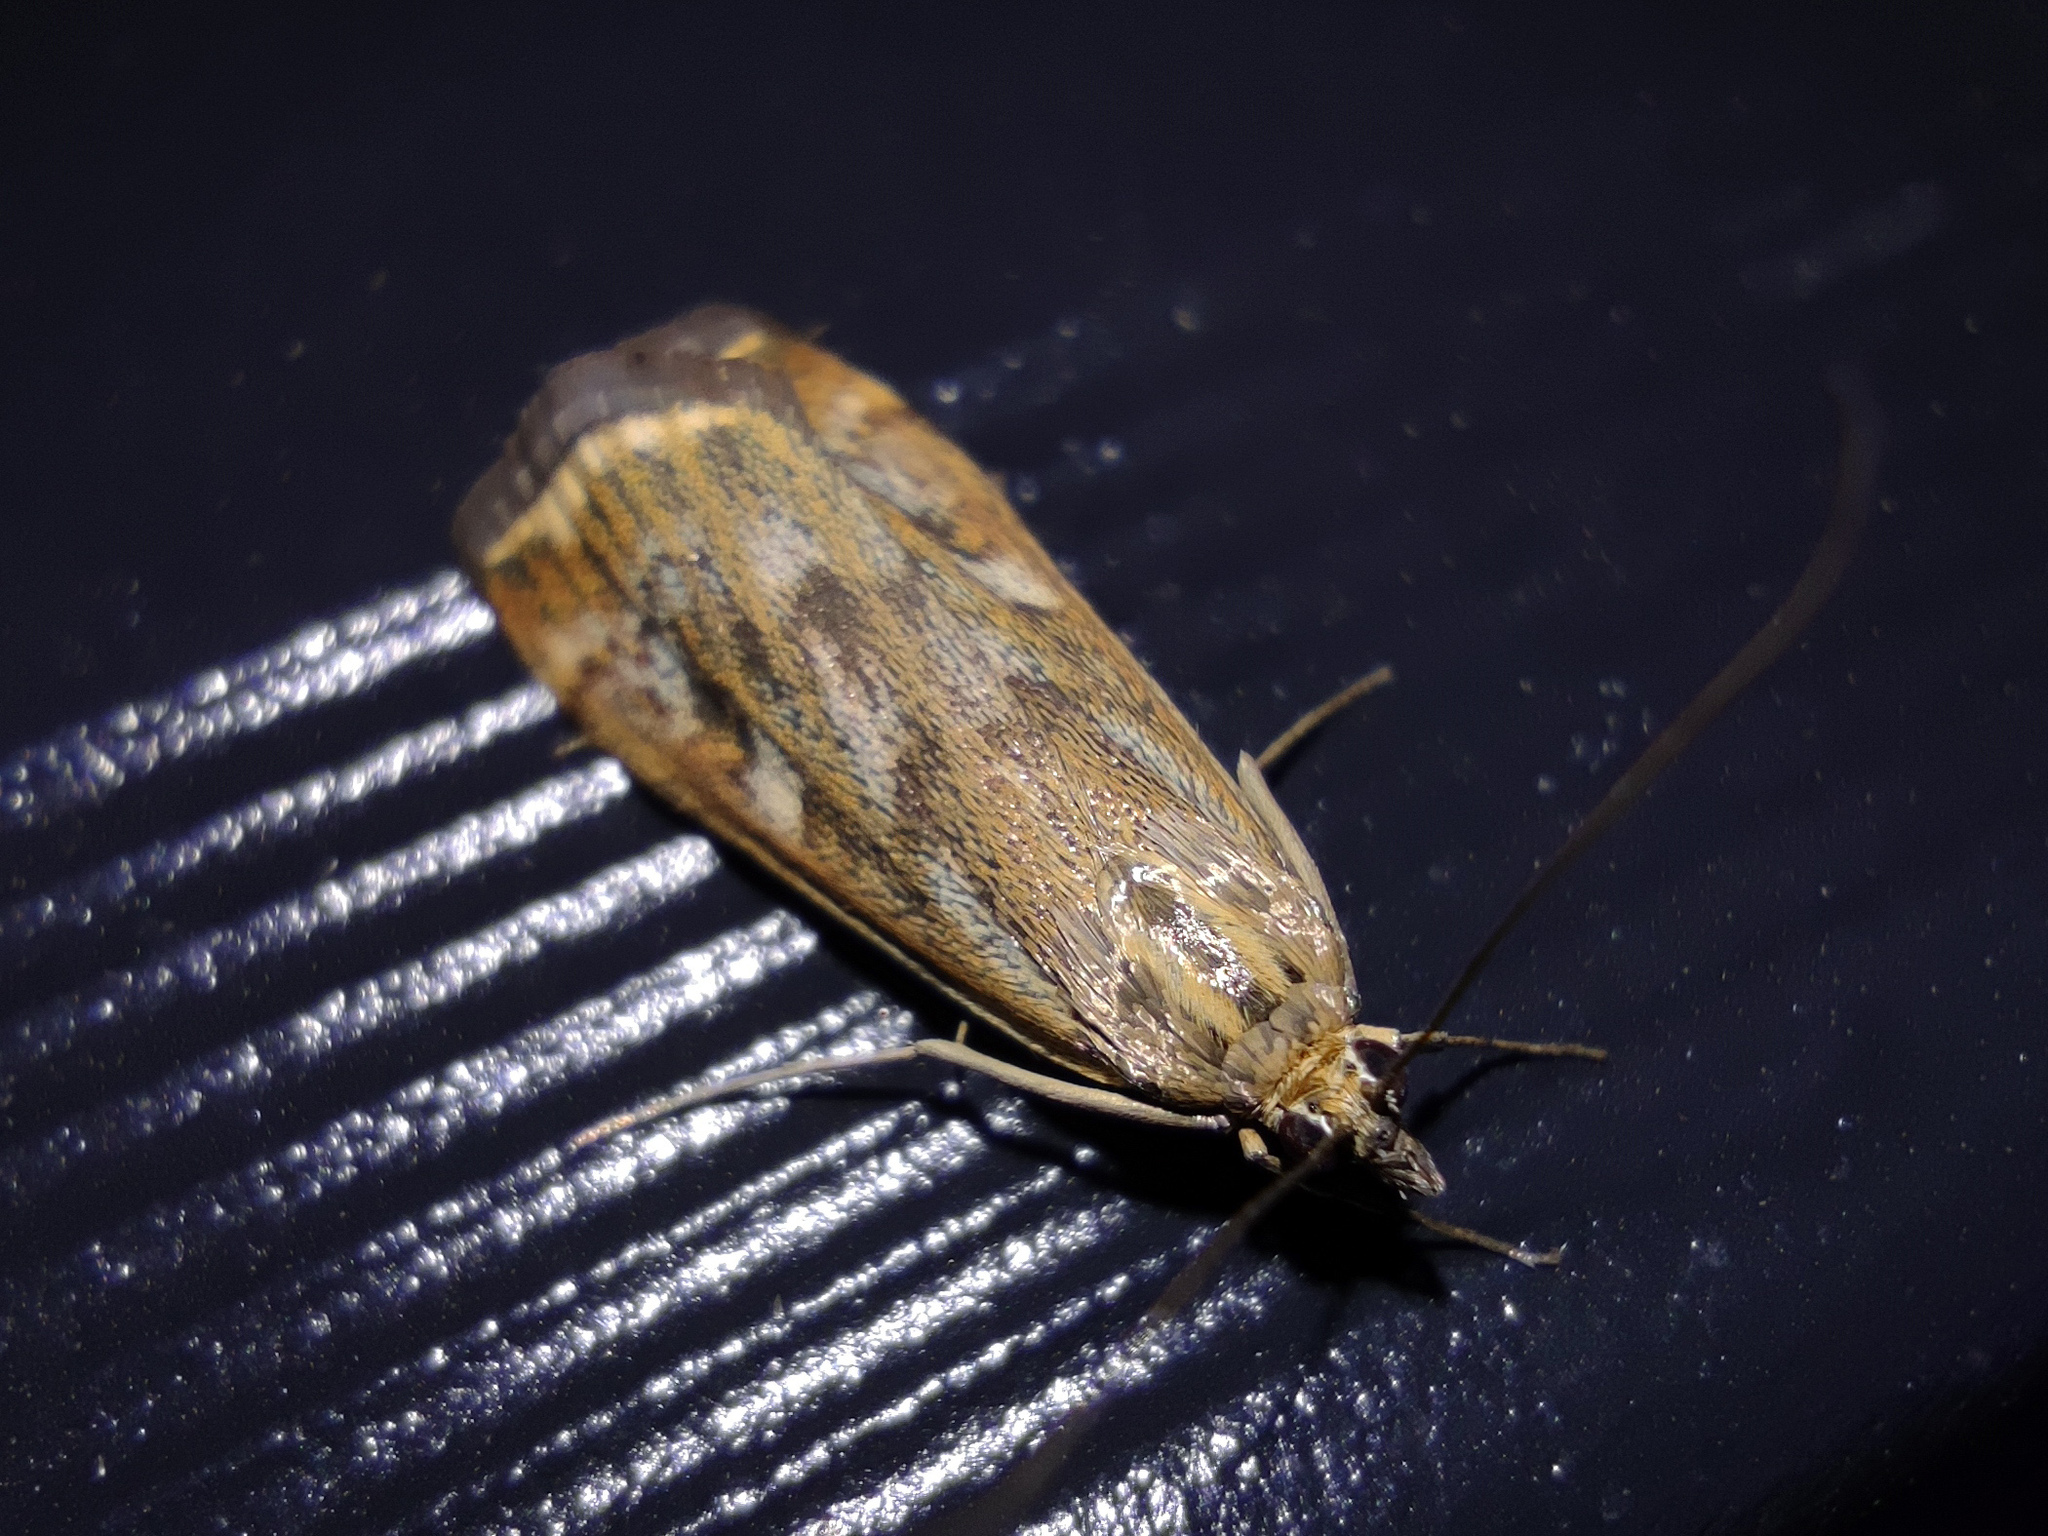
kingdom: Animalia
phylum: Arthropoda
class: Insecta
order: Lepidoptera
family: Crambidae
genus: Loxostege
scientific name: Loxostege sticticalis
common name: Crambid moth
